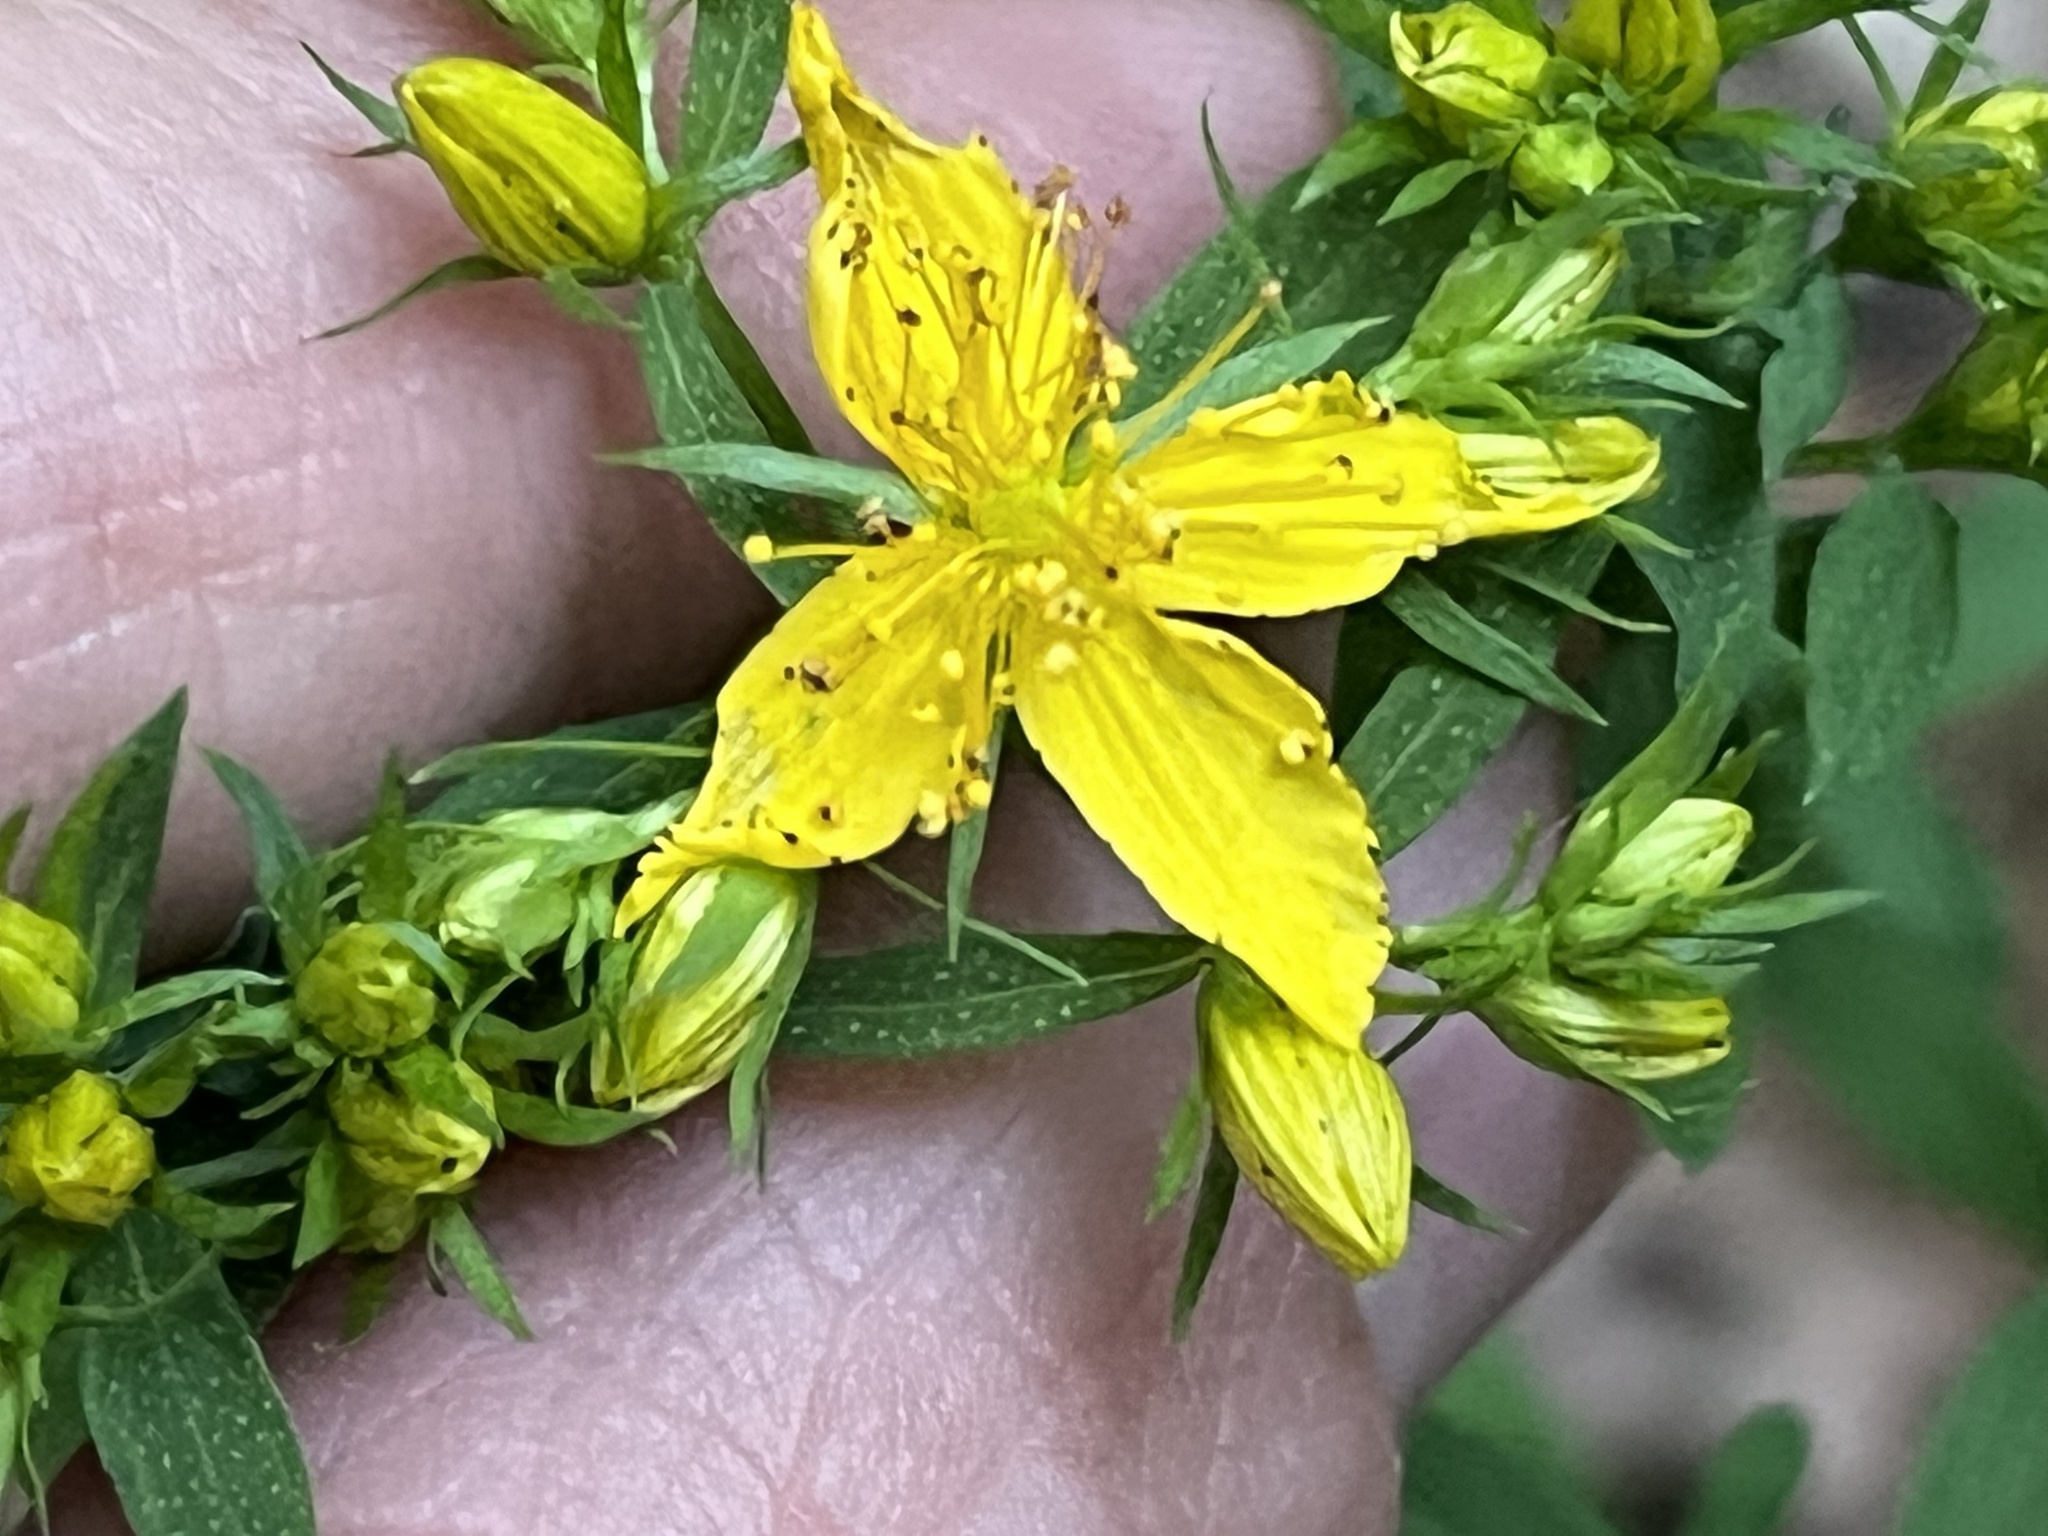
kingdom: Plantae
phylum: Tracheophyta
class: Magnoliopsida
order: Malpighiales
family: Hypericaceae
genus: Hypericum
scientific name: Hypericum perforatum
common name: Common st. johnswort
